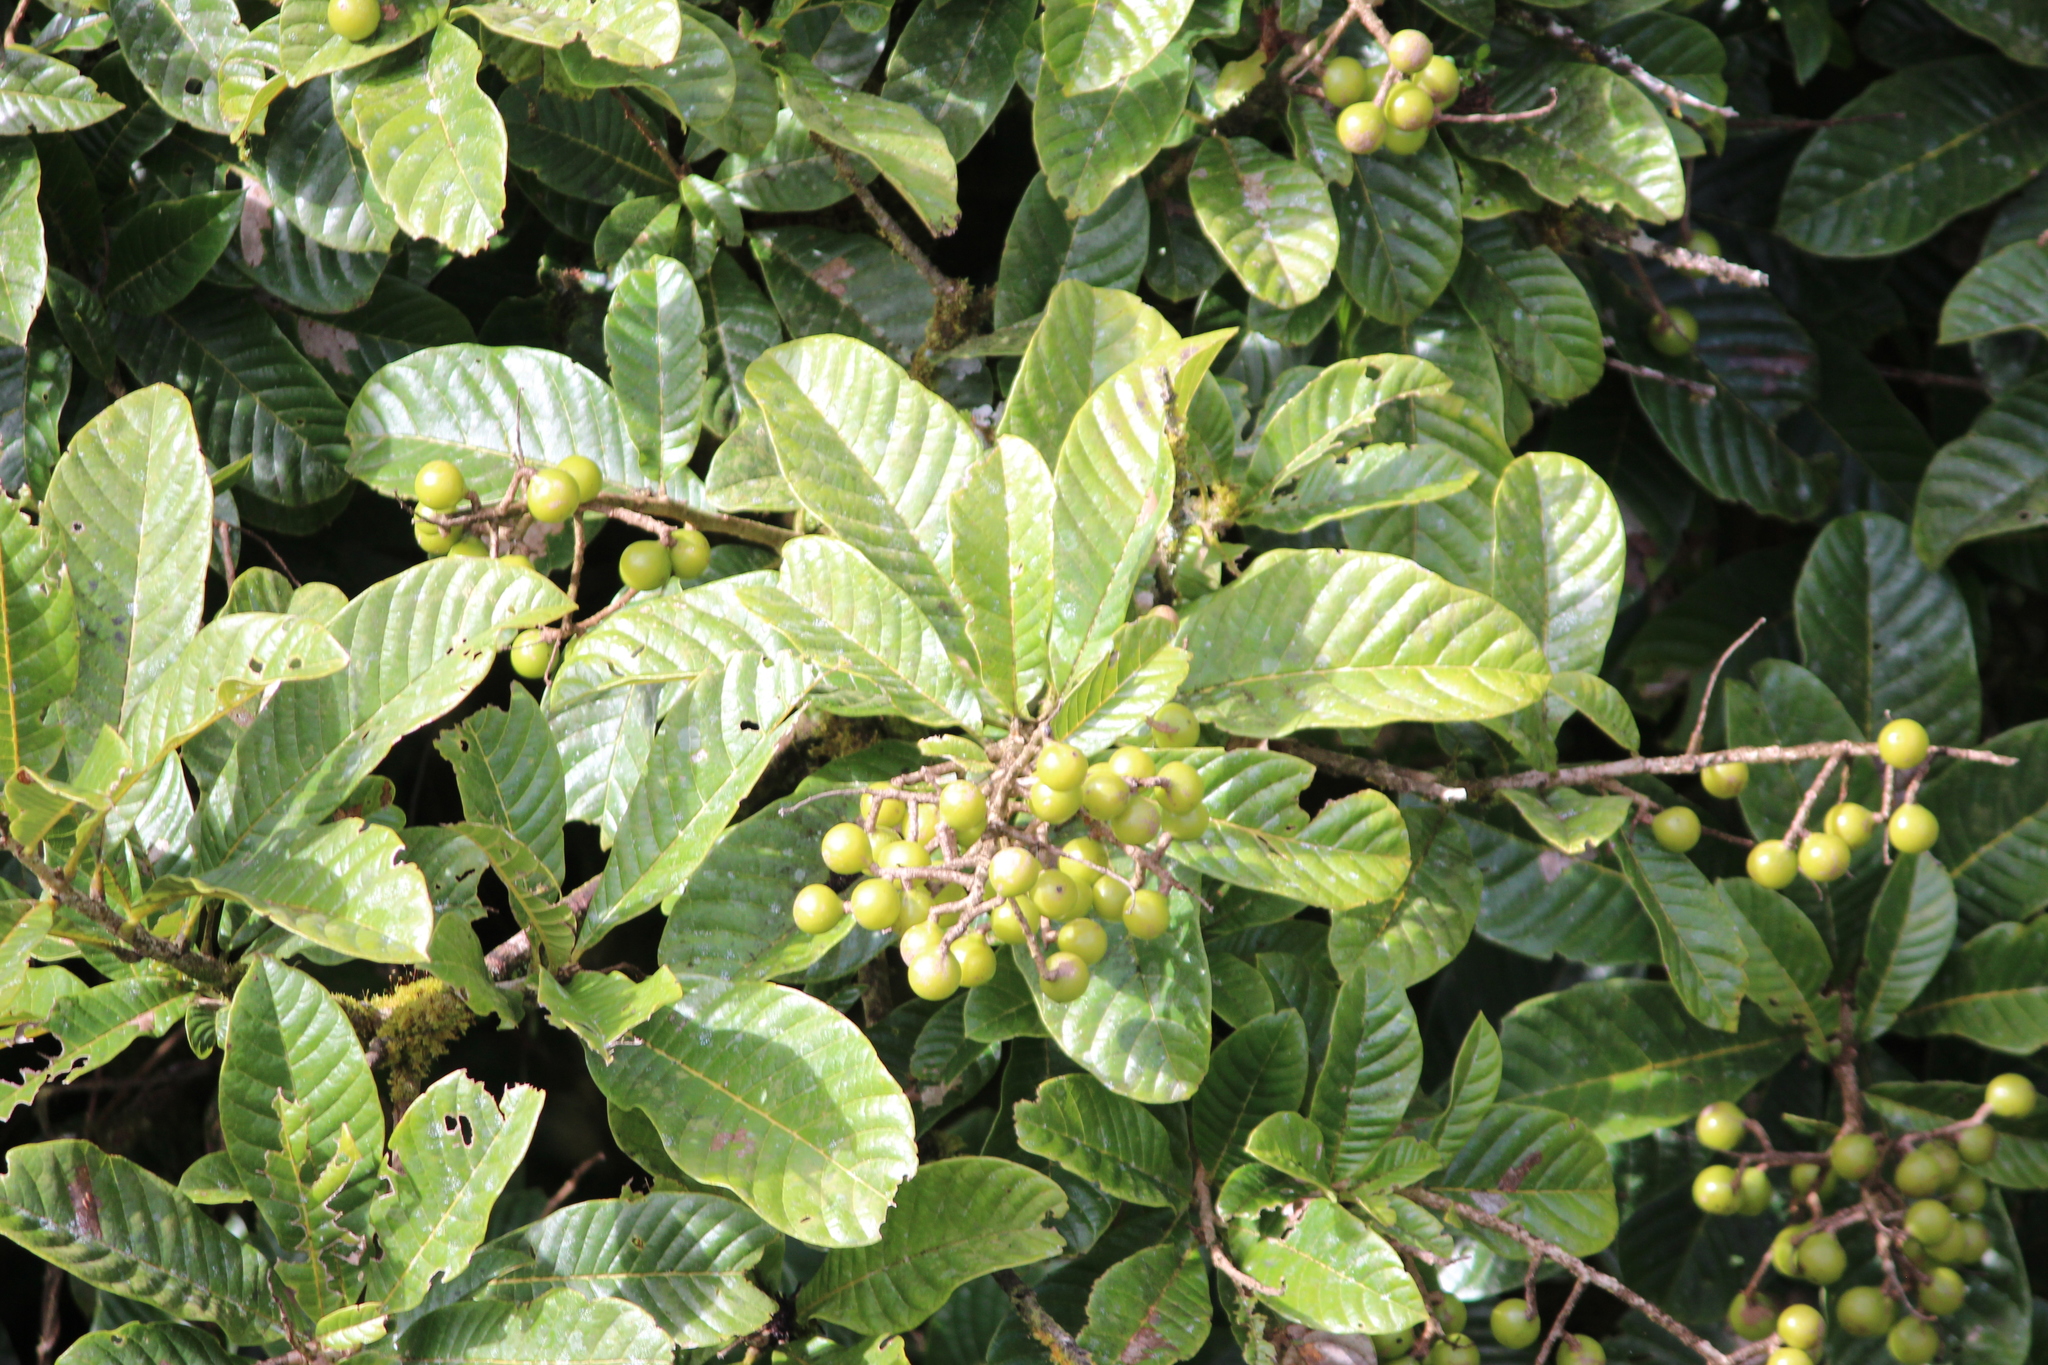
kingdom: Plantae
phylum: Tracheophyta
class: Magnoliopsida
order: Proteales
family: Sabiaceae
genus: Meliosma
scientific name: Meliosma vernicosa
